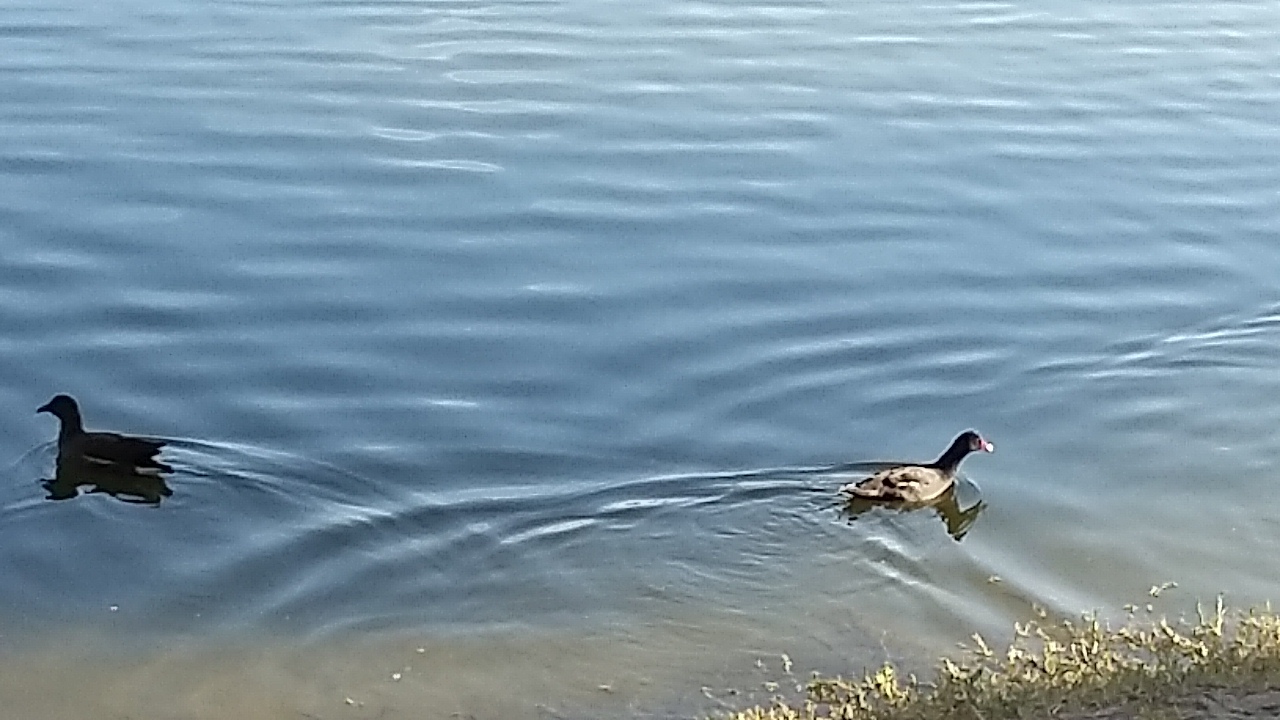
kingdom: Animalia
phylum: Chordata
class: Aves
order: Gruiformes
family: Rallidae
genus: Gallinula
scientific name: Gallinula chloropus
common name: Common moorhen
